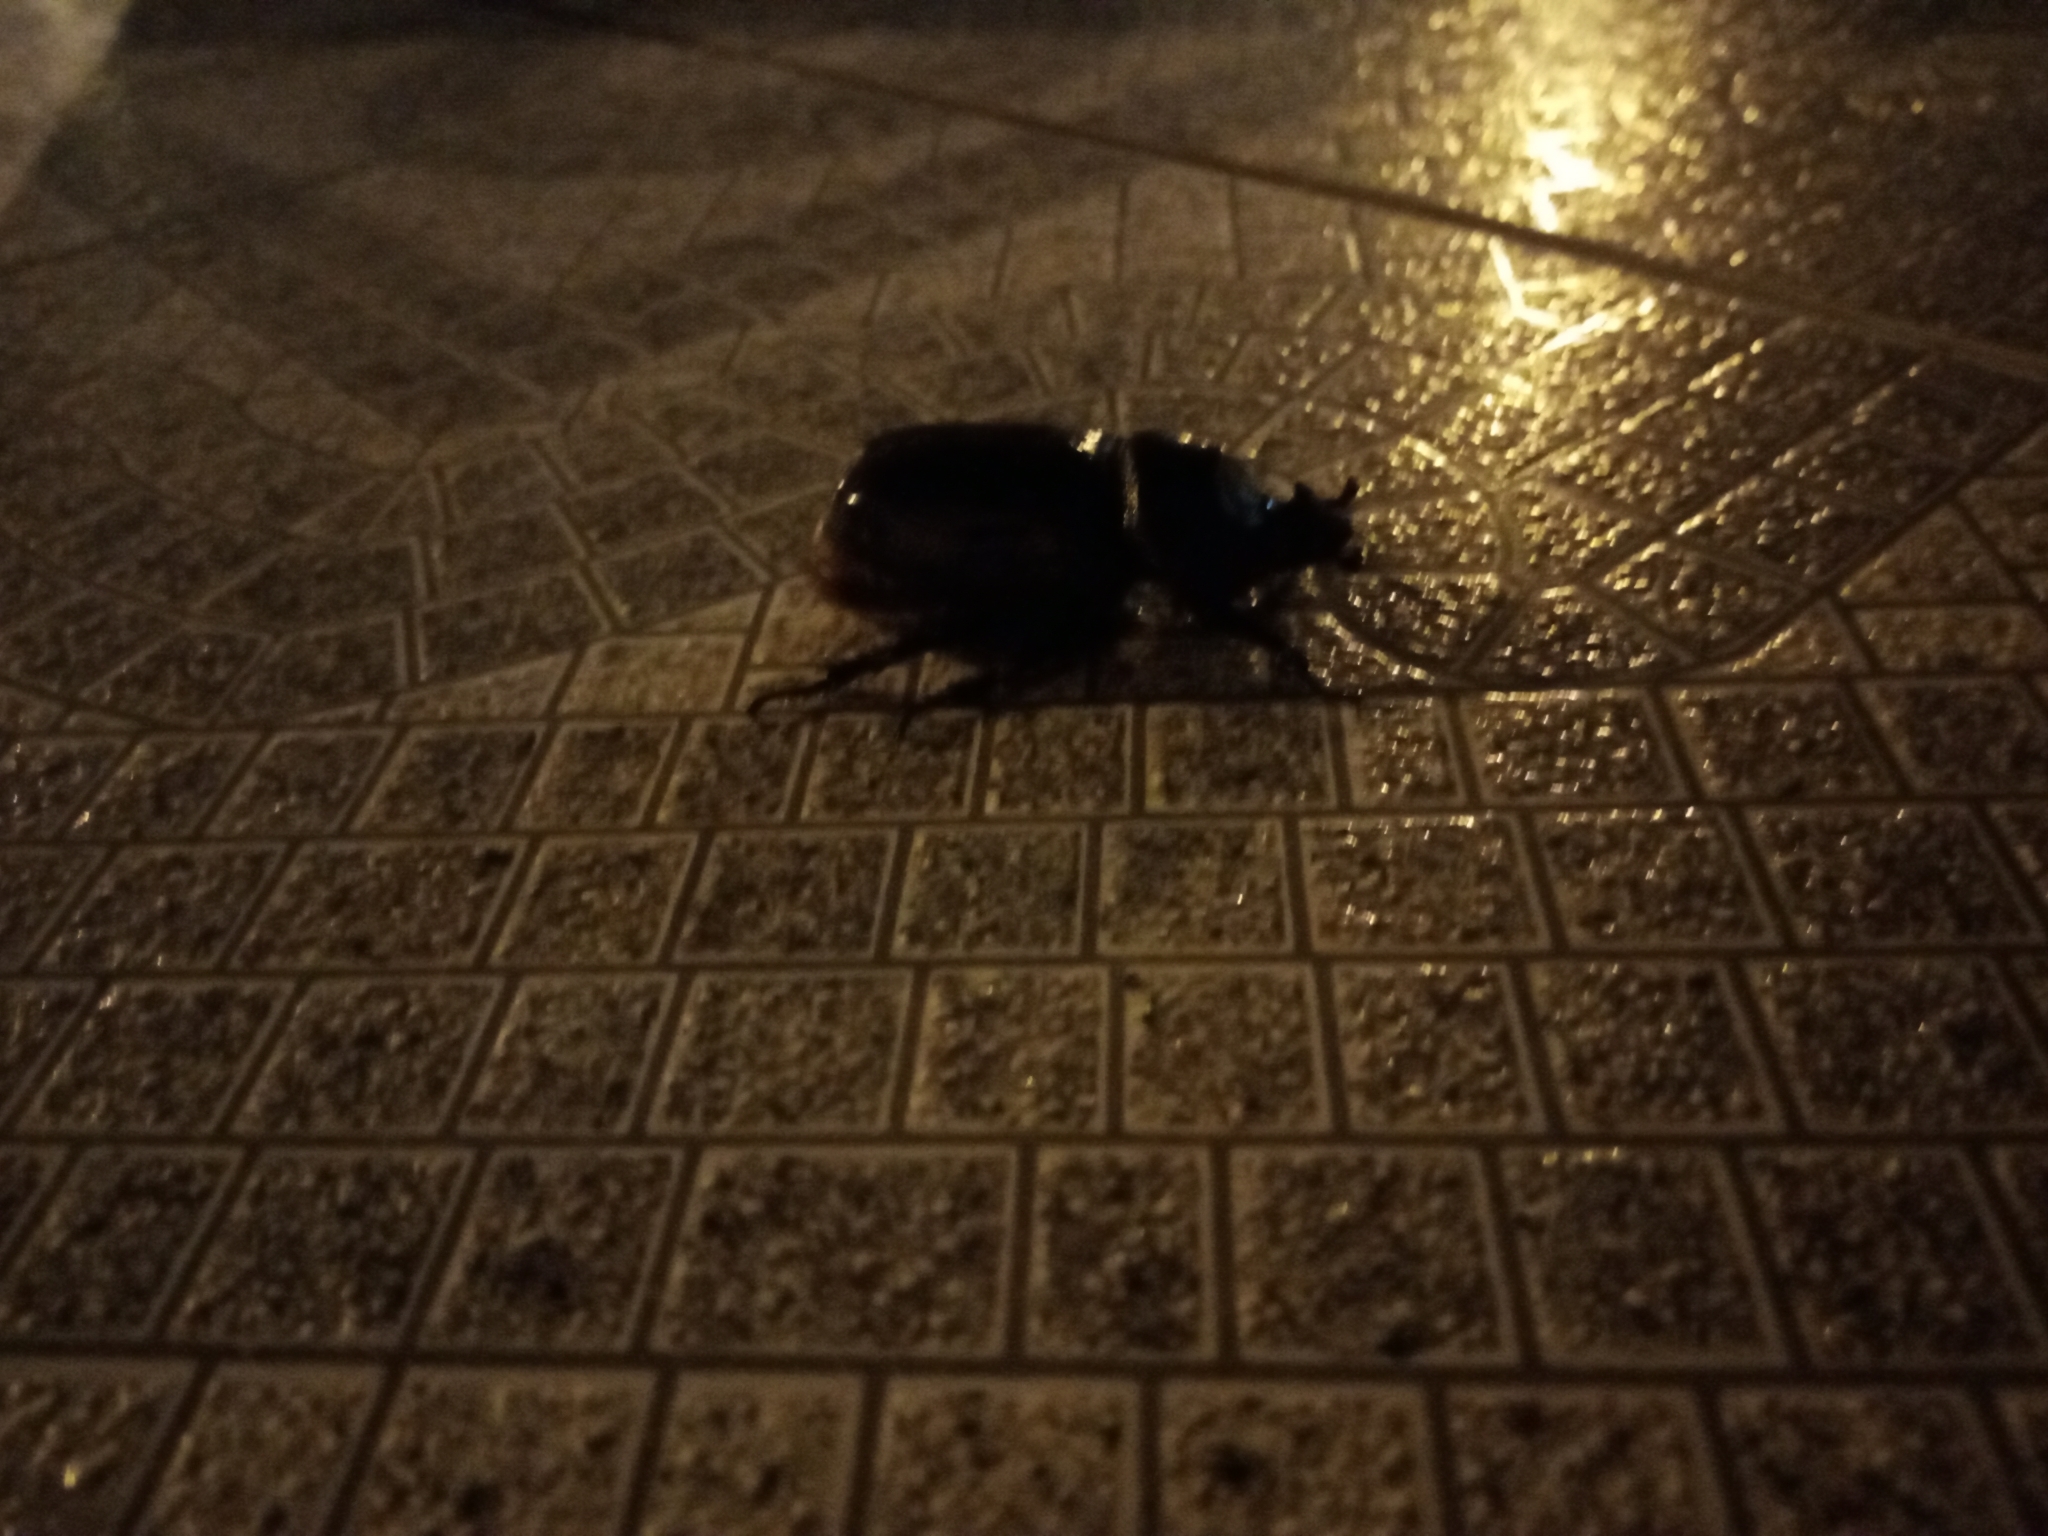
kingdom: Animalia
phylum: Arthropoda
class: Insecta
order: Coleoptera
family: Scarabaeidae
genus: Oryctes
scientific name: Oryctes nasicornis
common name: European rhinoceros beetle
